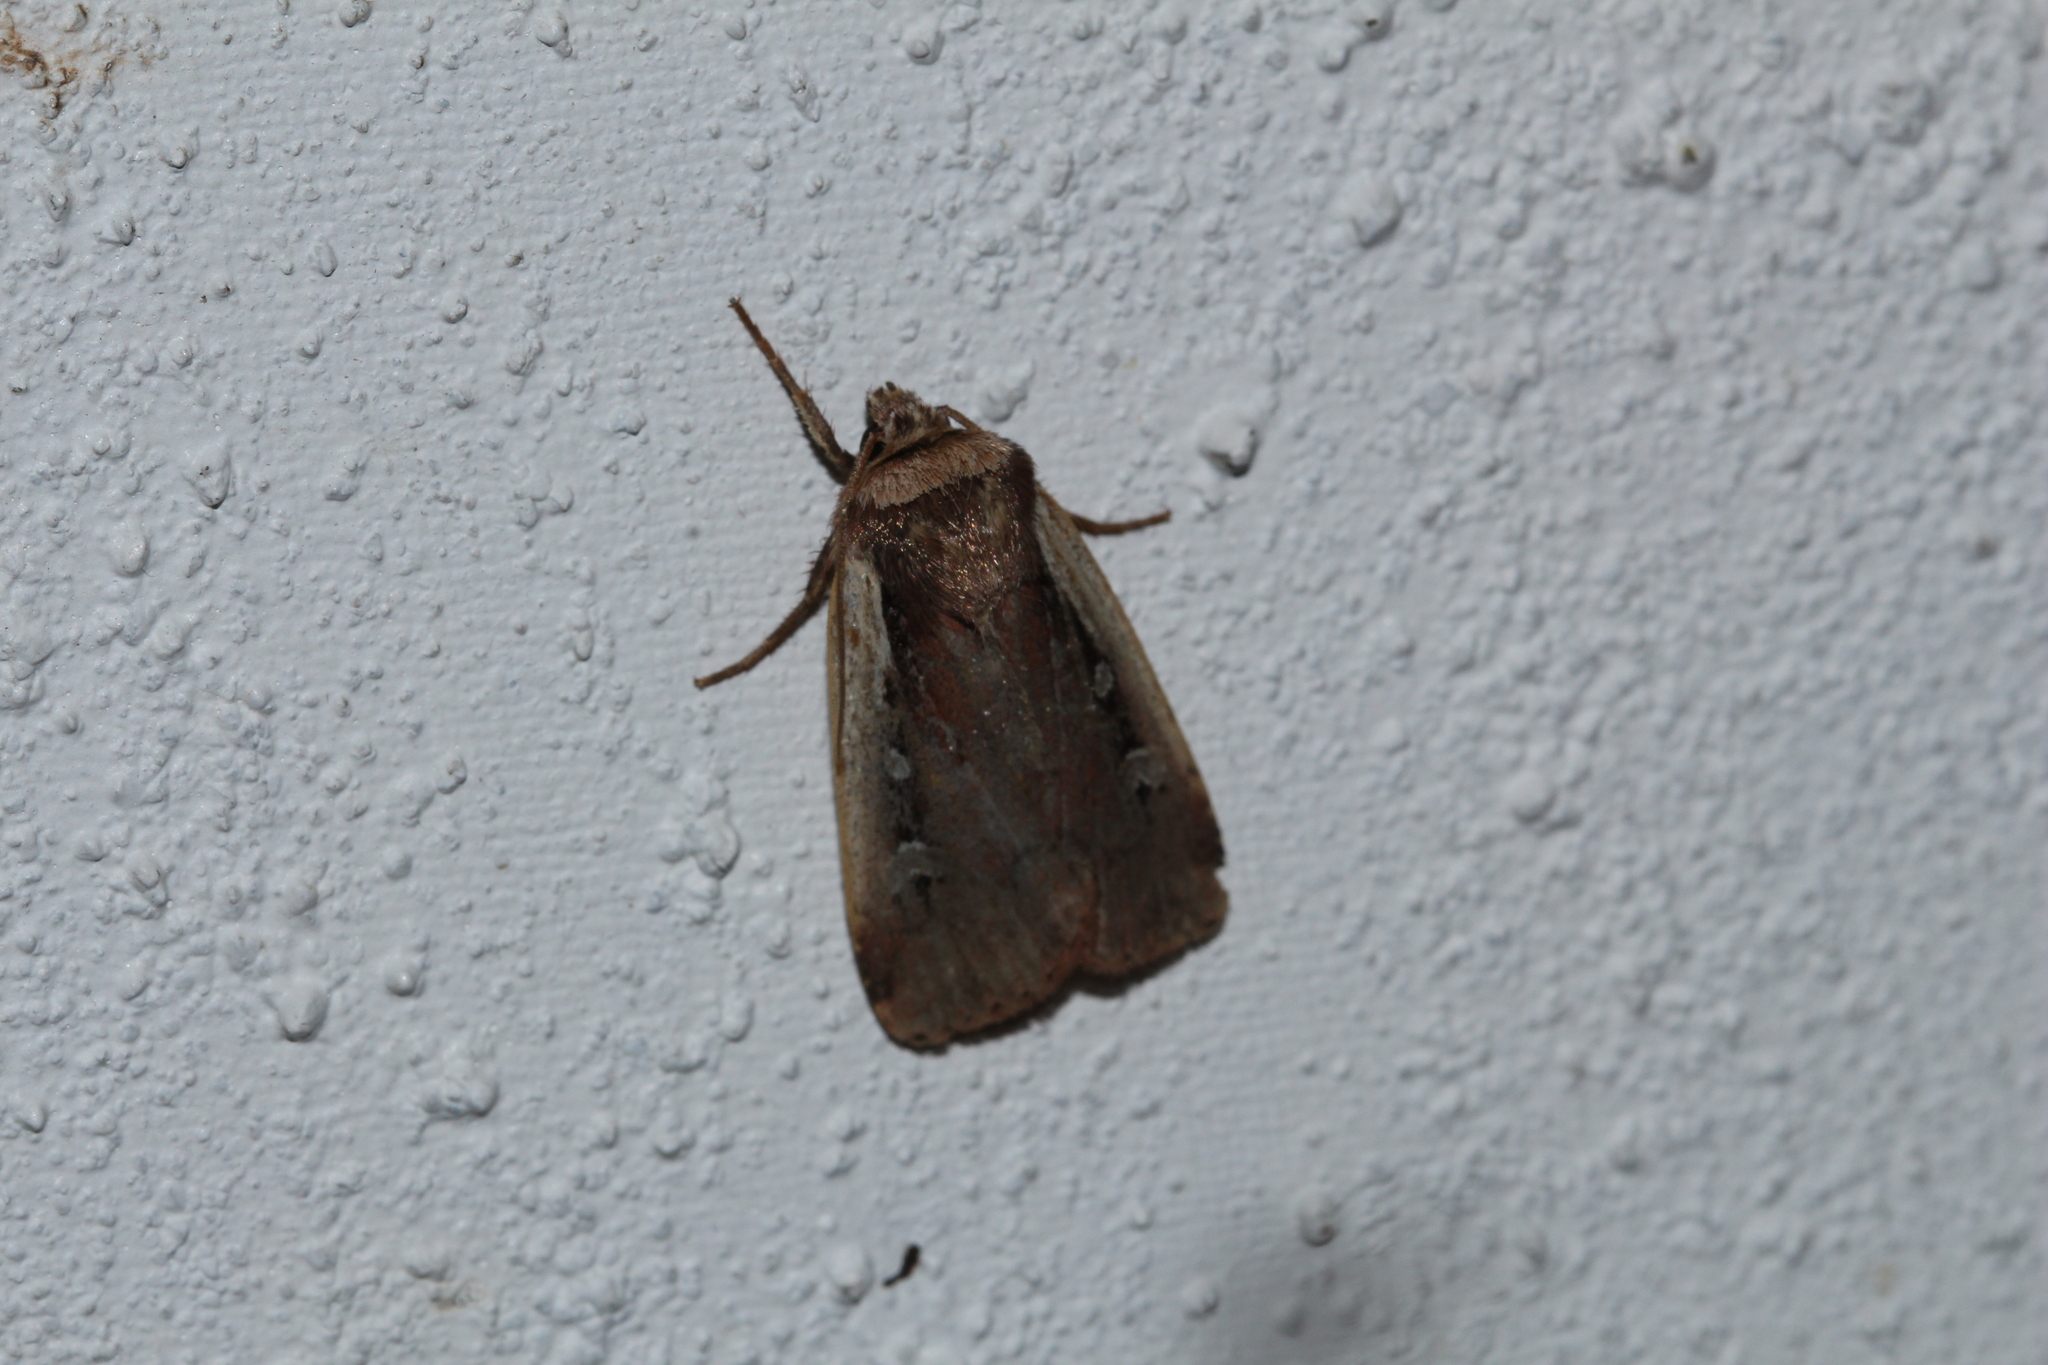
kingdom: Animalia
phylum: Arthropoda
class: Insecta
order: Lepidoptera
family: Noctuidae
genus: Ochropleura
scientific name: Ochropleura plecta
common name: Flame shoulder
